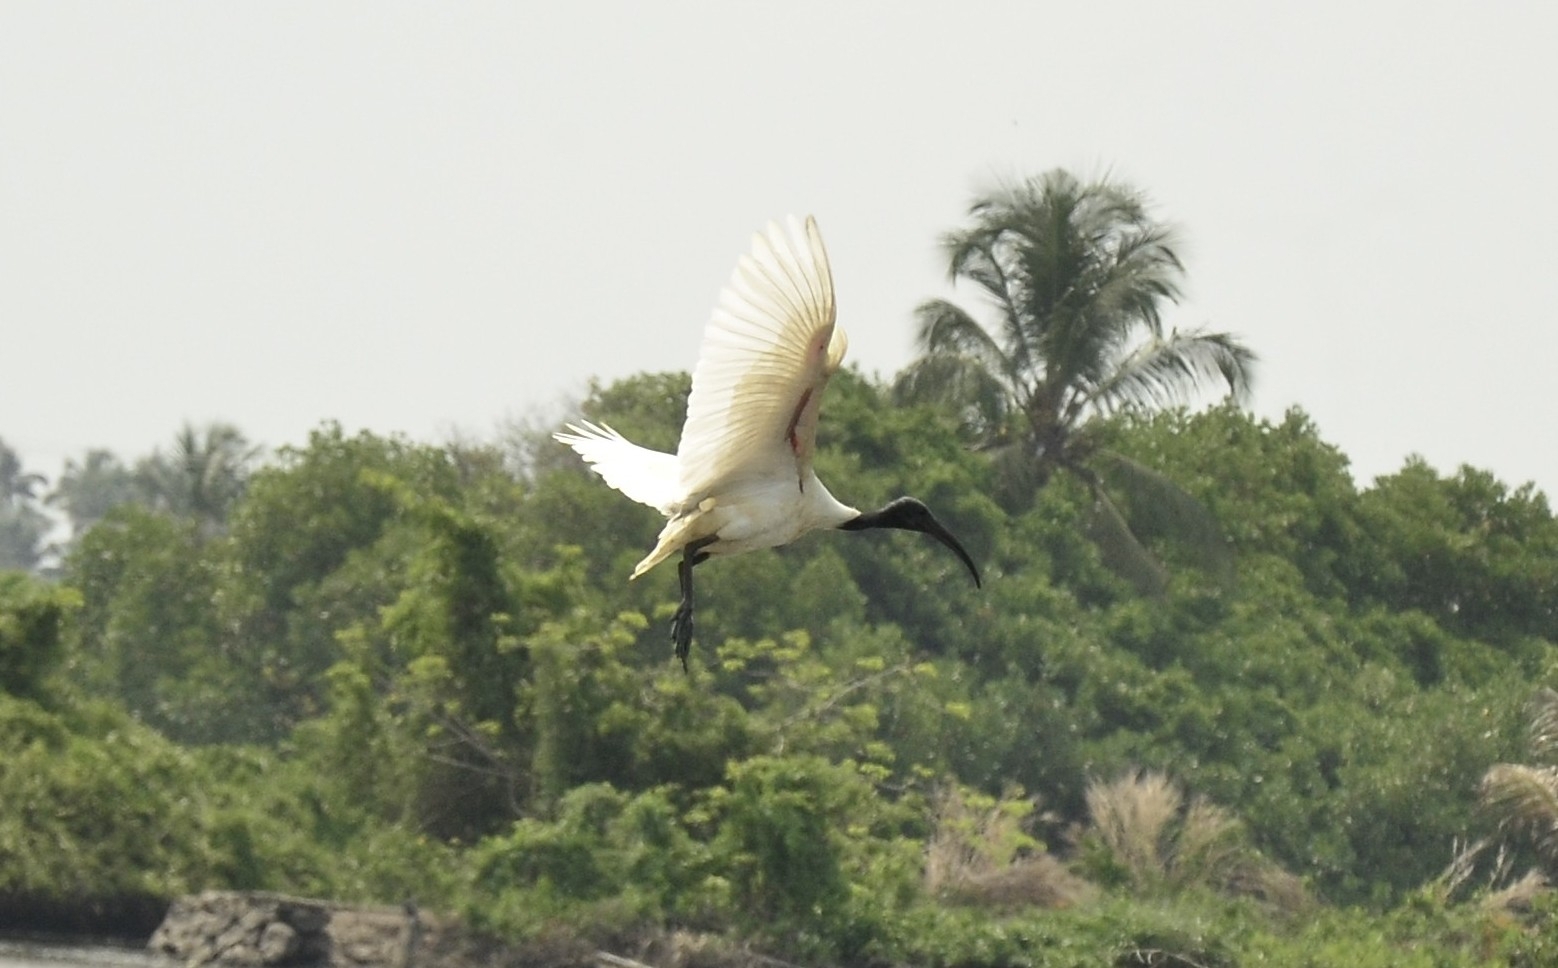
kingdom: Animalia
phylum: Chordata
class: Aves
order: Pelecaniformes
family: Threskiornithidae
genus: Threskiornis
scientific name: Threskiornis melanocephalus
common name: Black-headed ibis
